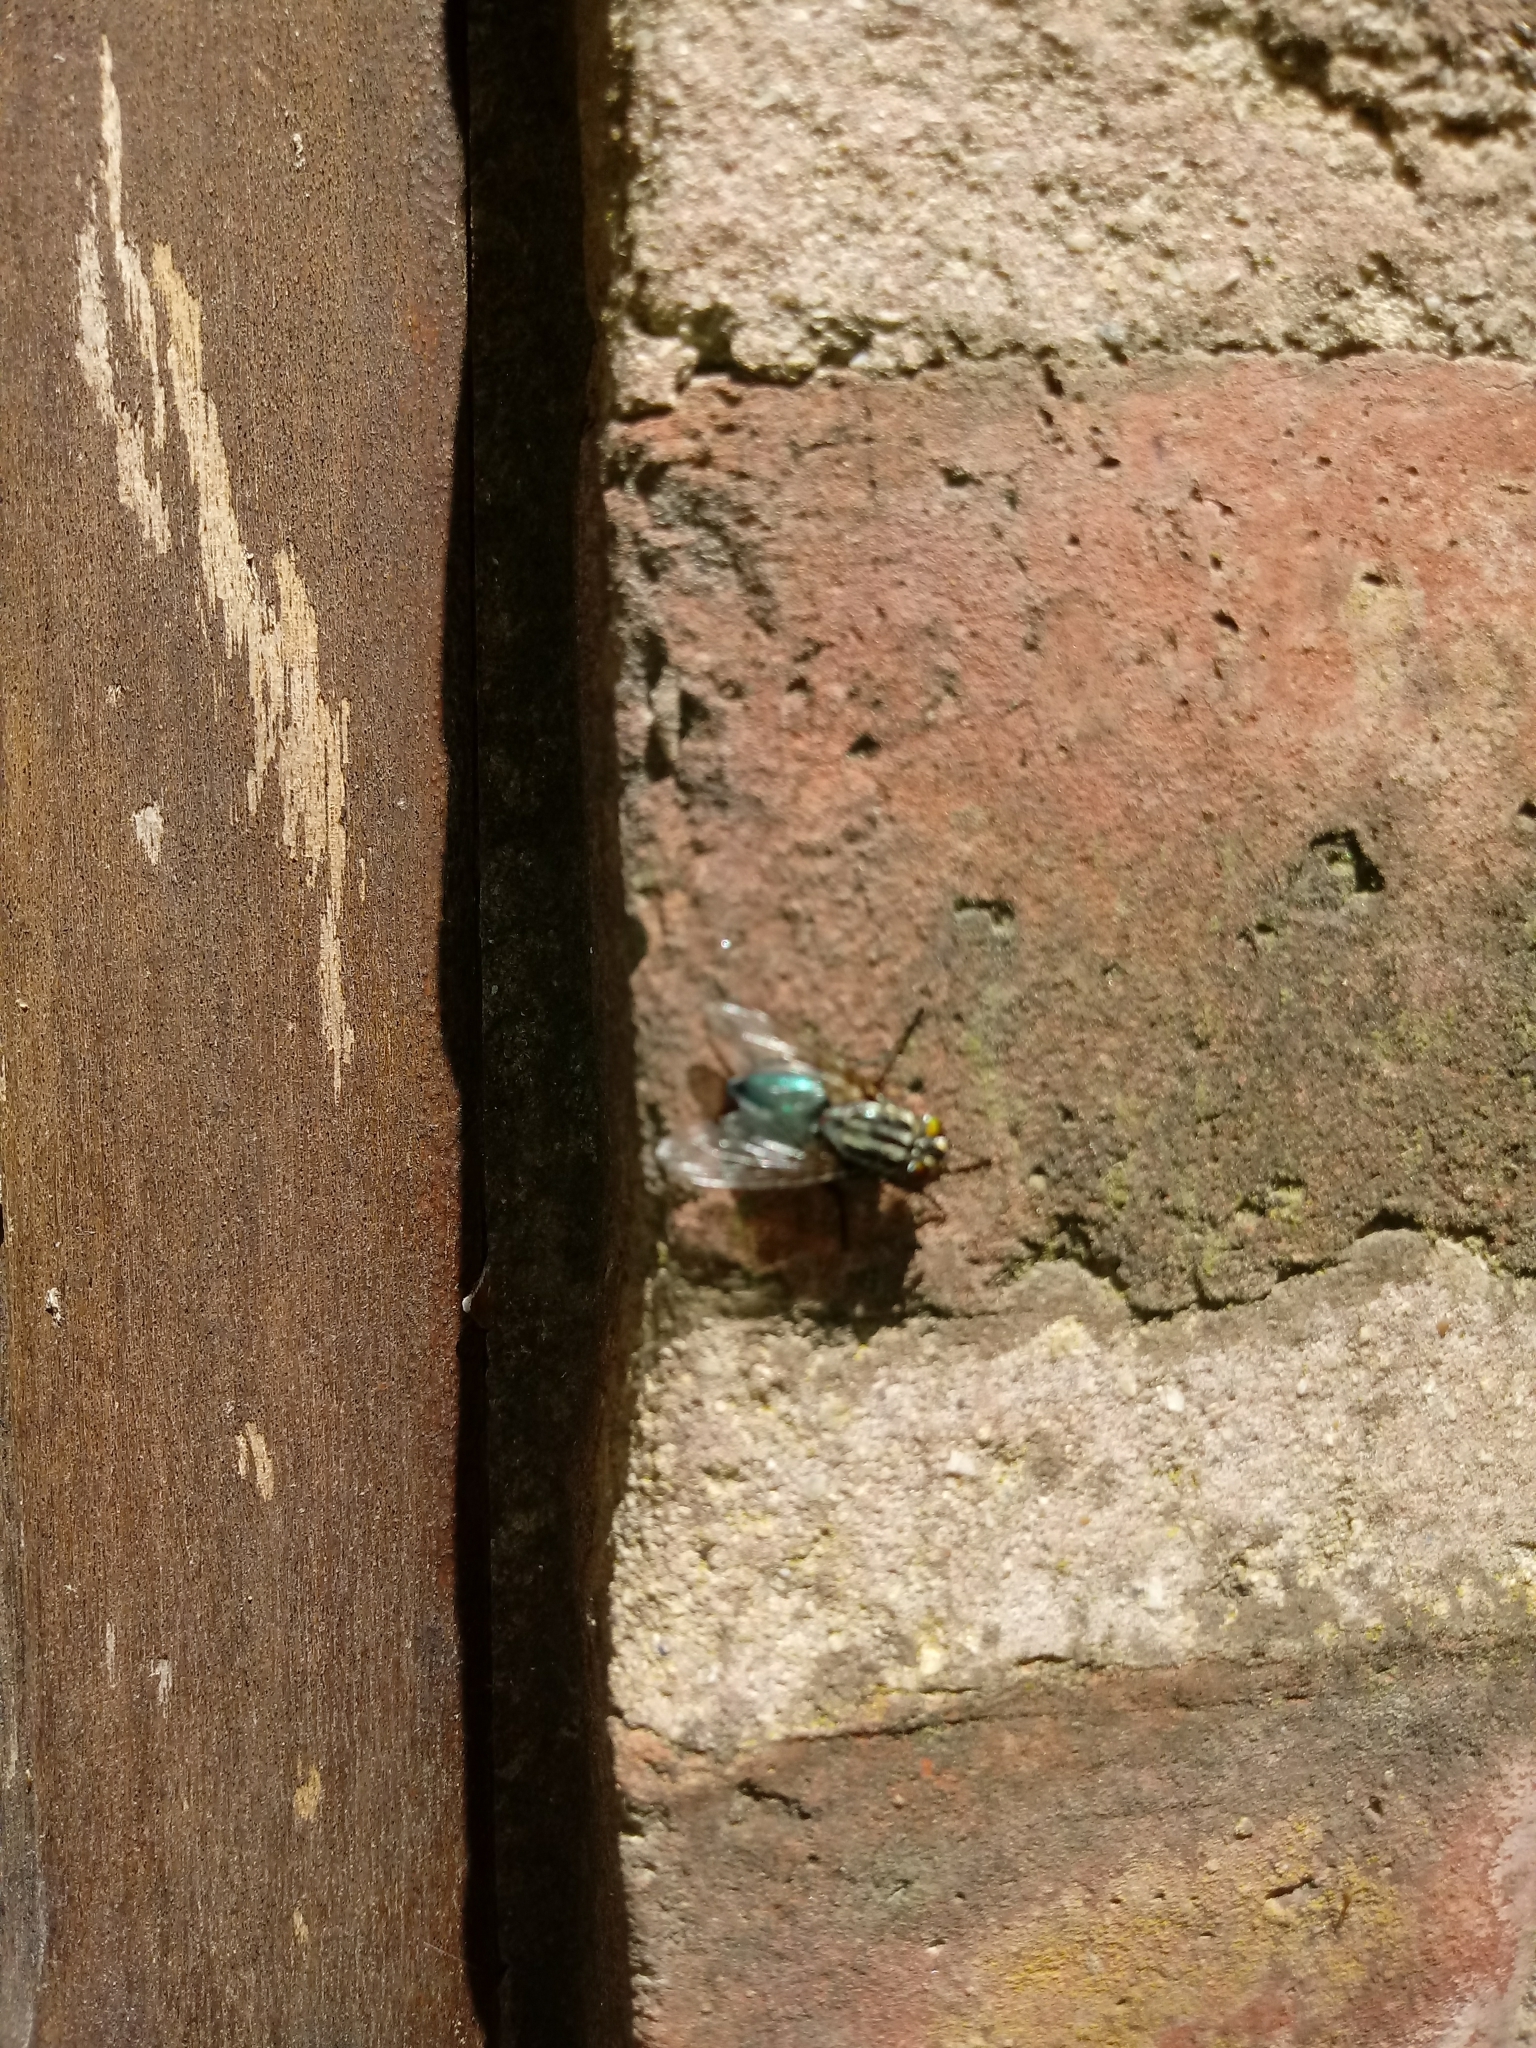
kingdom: Animalia
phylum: Arthropoda
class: Insecta
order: Diptera
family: Calliphoridae
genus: Sarconesia
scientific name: Sarconesia chlorogaster
